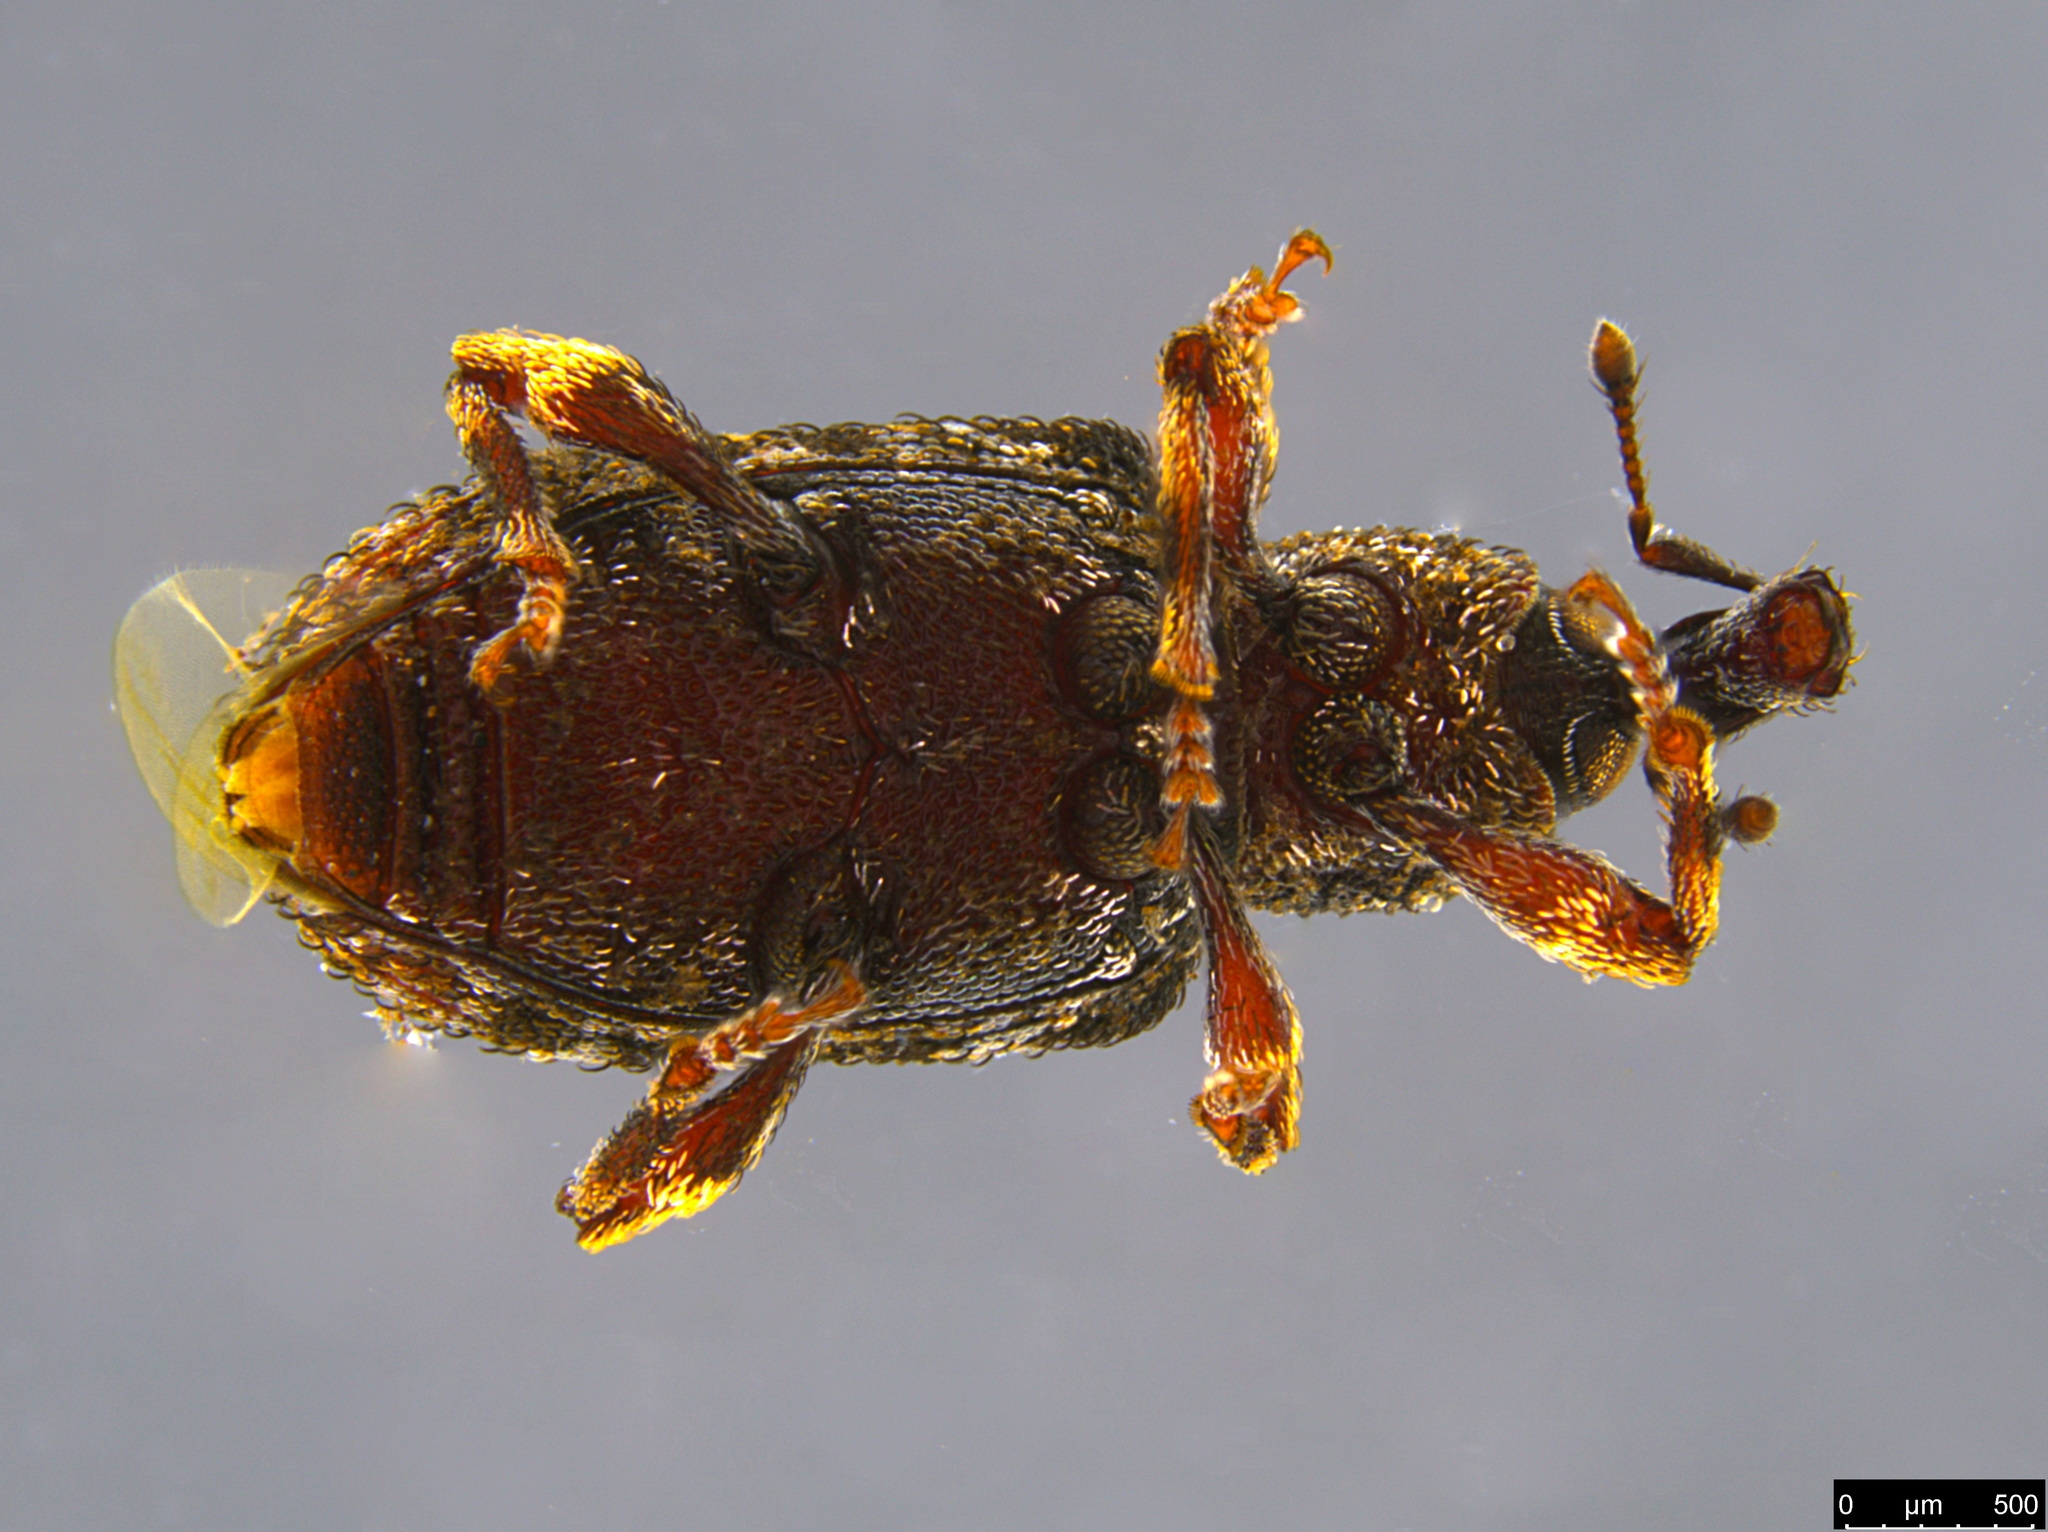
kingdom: Animalia
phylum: Arthropoda
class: Insecta
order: Coleoptera
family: Curculionidae
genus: Anorthorhinus
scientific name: Anorthorhinus pictipes
